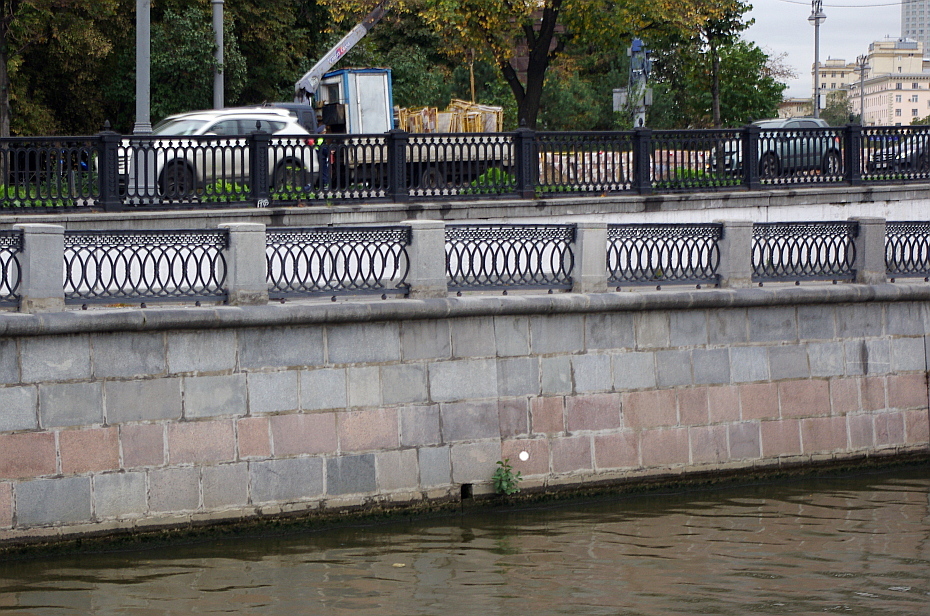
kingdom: Plantae
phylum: Tracheophyta
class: Magnoliopsida
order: Fagales
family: Betulaceae
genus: Alnus
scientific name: Alnus glutinosa
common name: Black alder
